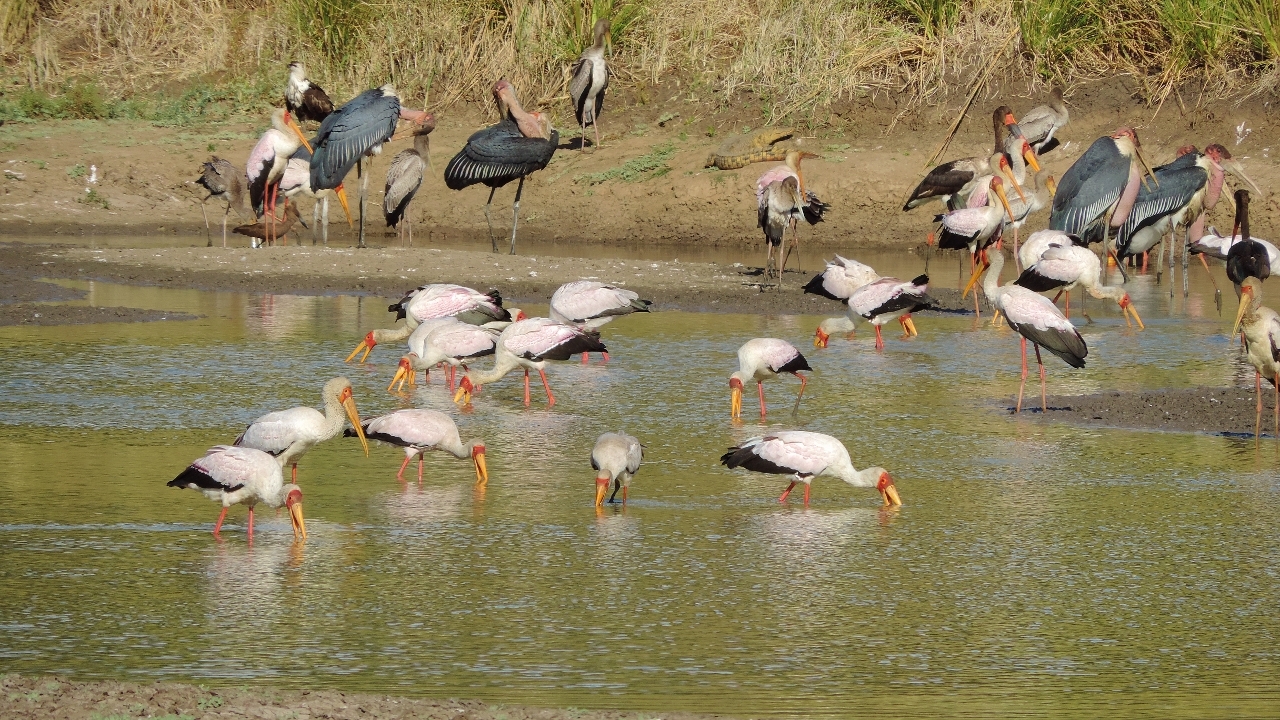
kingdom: Animalia
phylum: Chordata
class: Aves
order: Ciconiiformes
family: Ciconiidae
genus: Mycteria
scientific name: Mycteria ibis
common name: Yellow-billed stork
